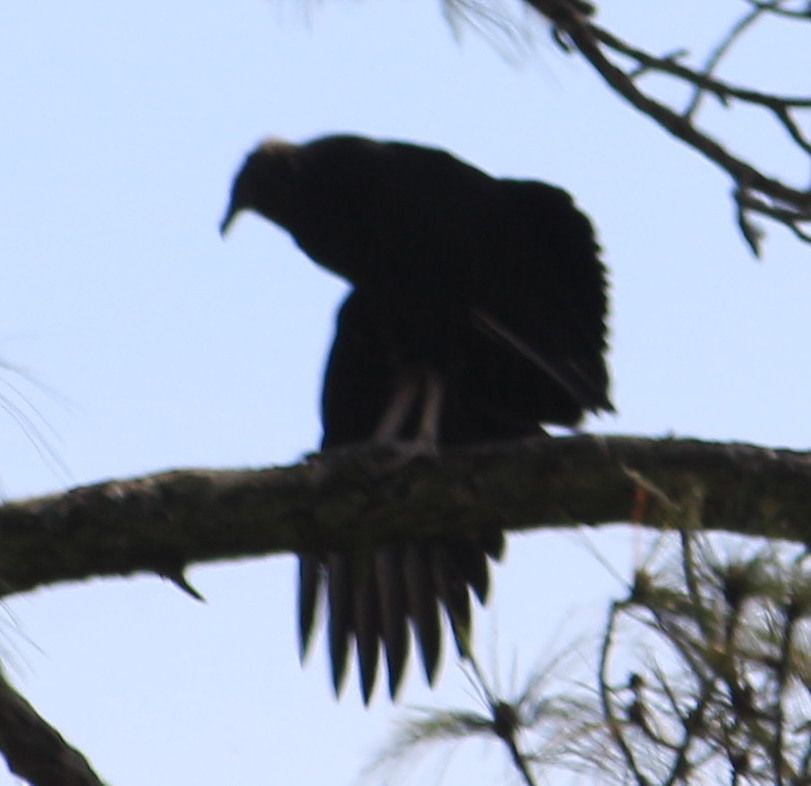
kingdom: Animalia
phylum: Chordata
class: Aves
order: Accipitriformes
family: Cathartidae
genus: Coragyps
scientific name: Coragyps atratus
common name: Black vulture
